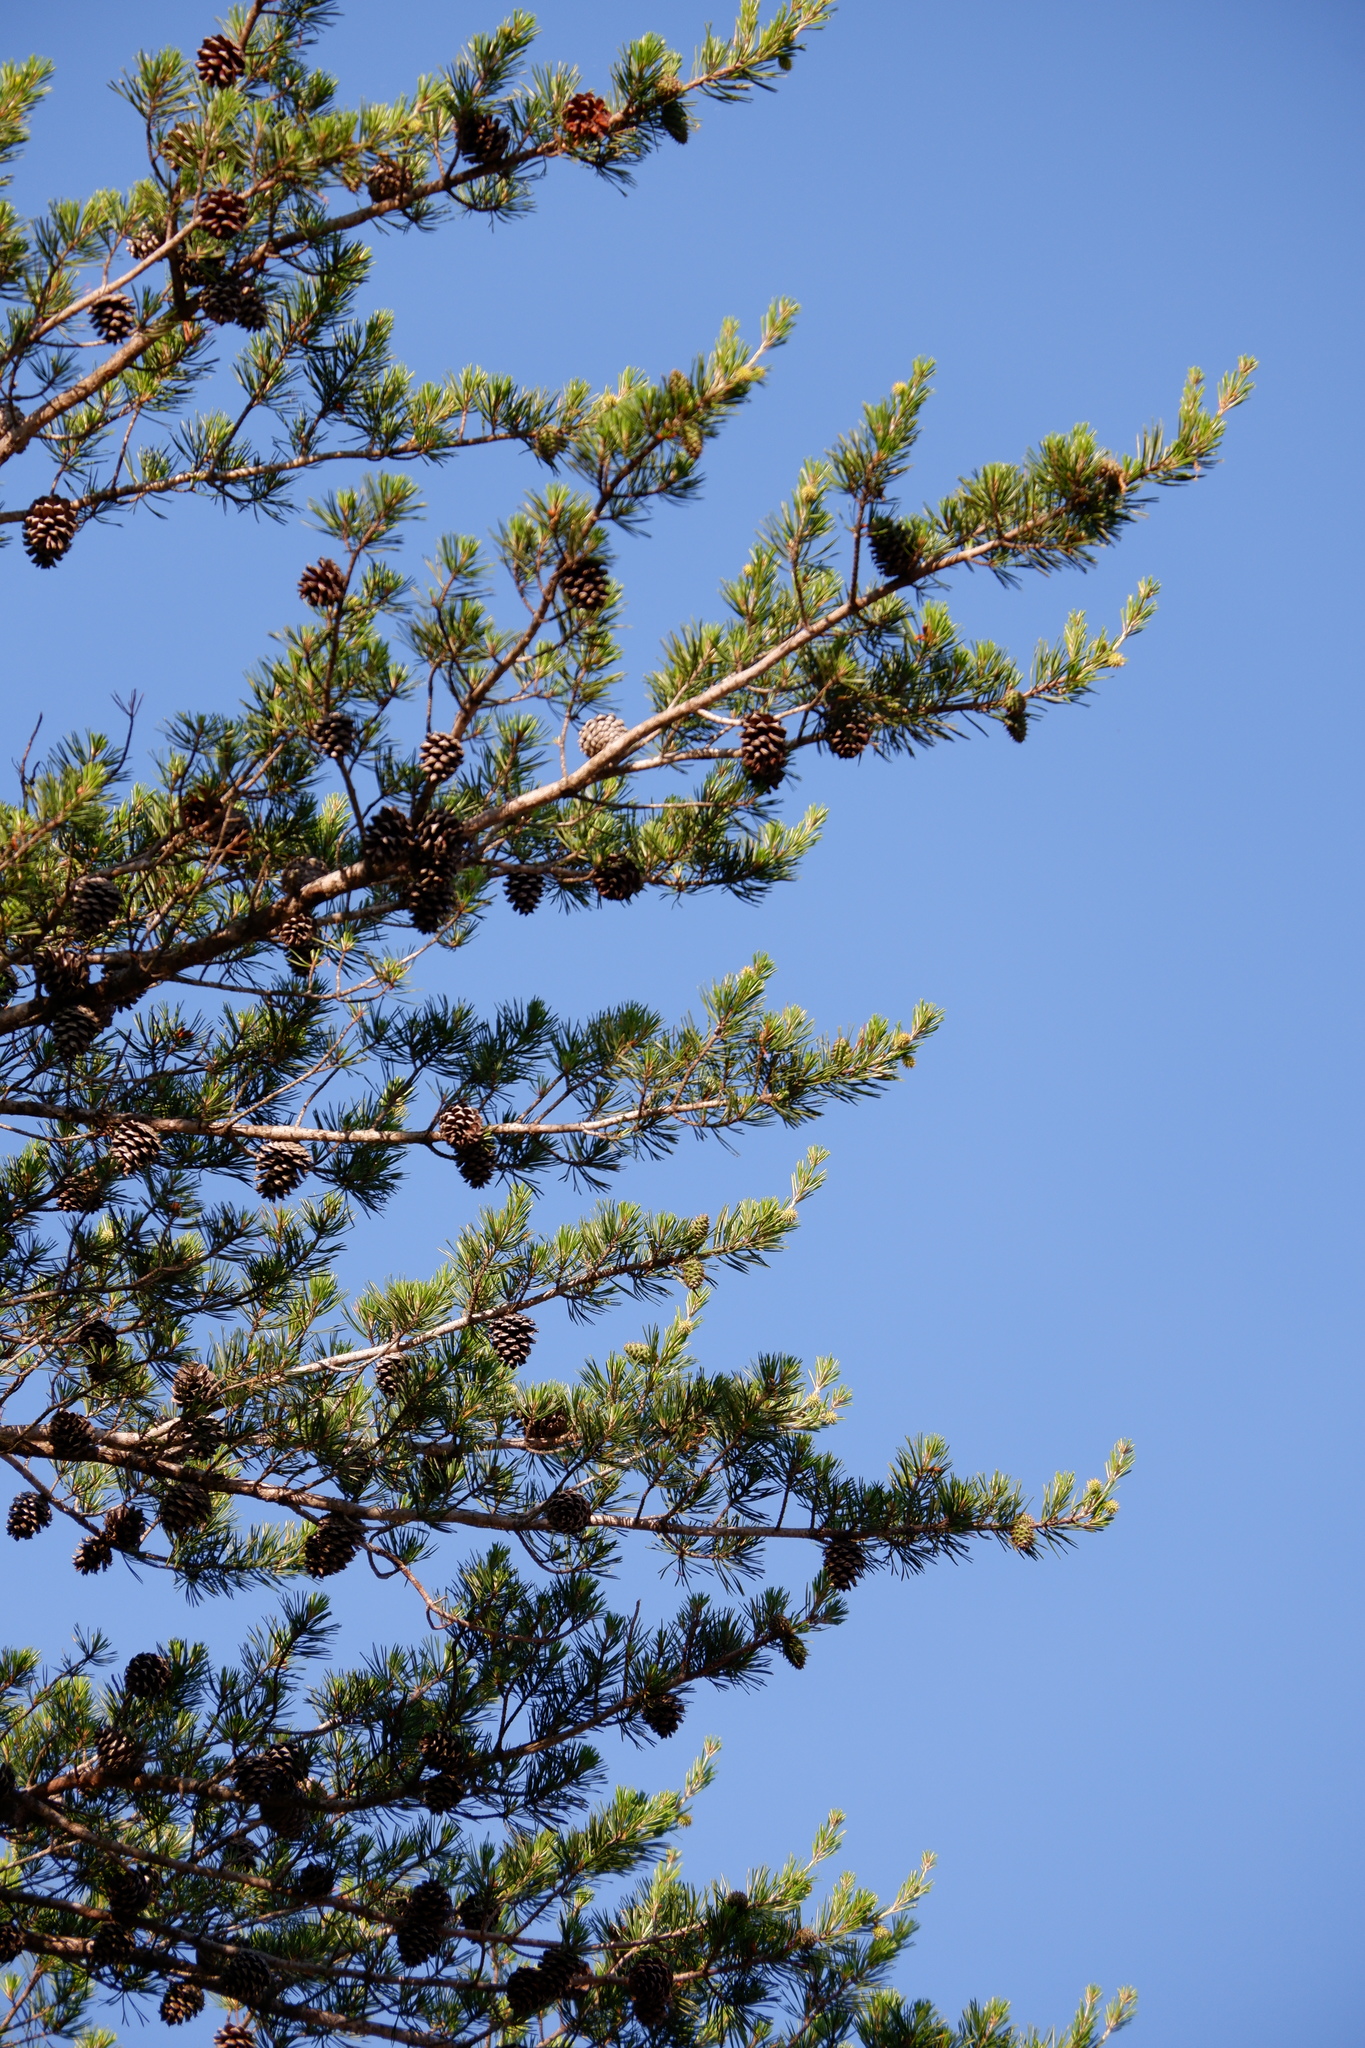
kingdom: Plantae
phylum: Tracheophyta
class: Pinopsida
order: Pinales
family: Pinaceae
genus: Pinus
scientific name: Pinus virginiana
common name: Scrub pine
